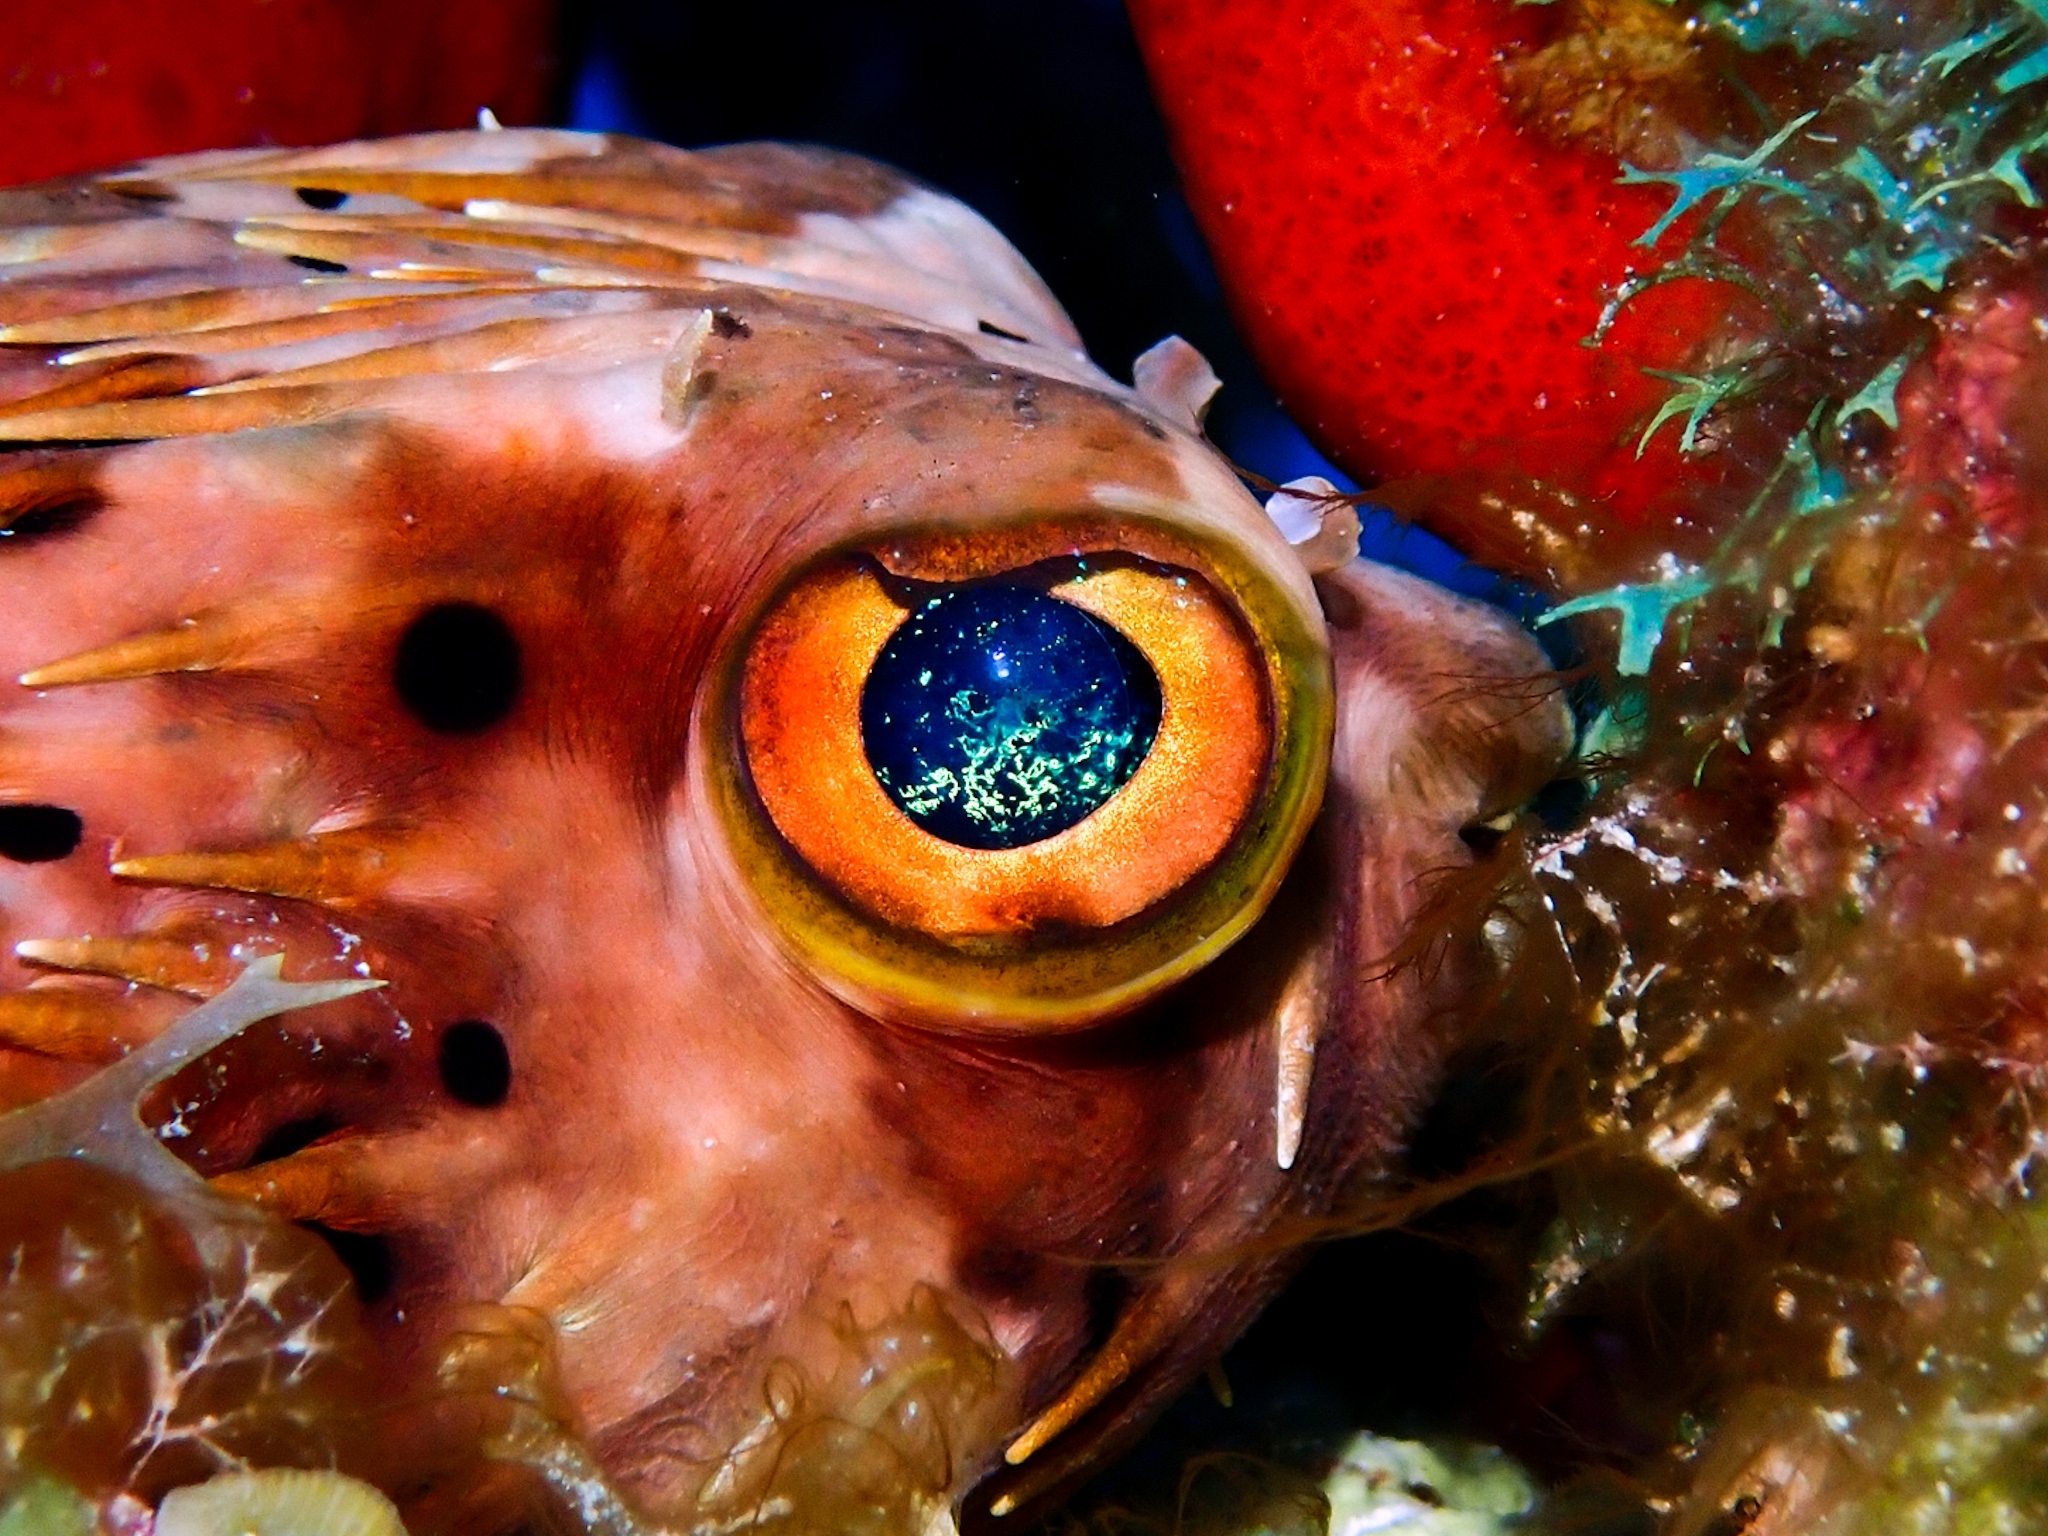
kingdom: Animalia
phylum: Chordata
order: Tetraodontiformes
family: Diodontidae
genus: Diodon
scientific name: Diodon holocanthus
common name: Balloonfish
